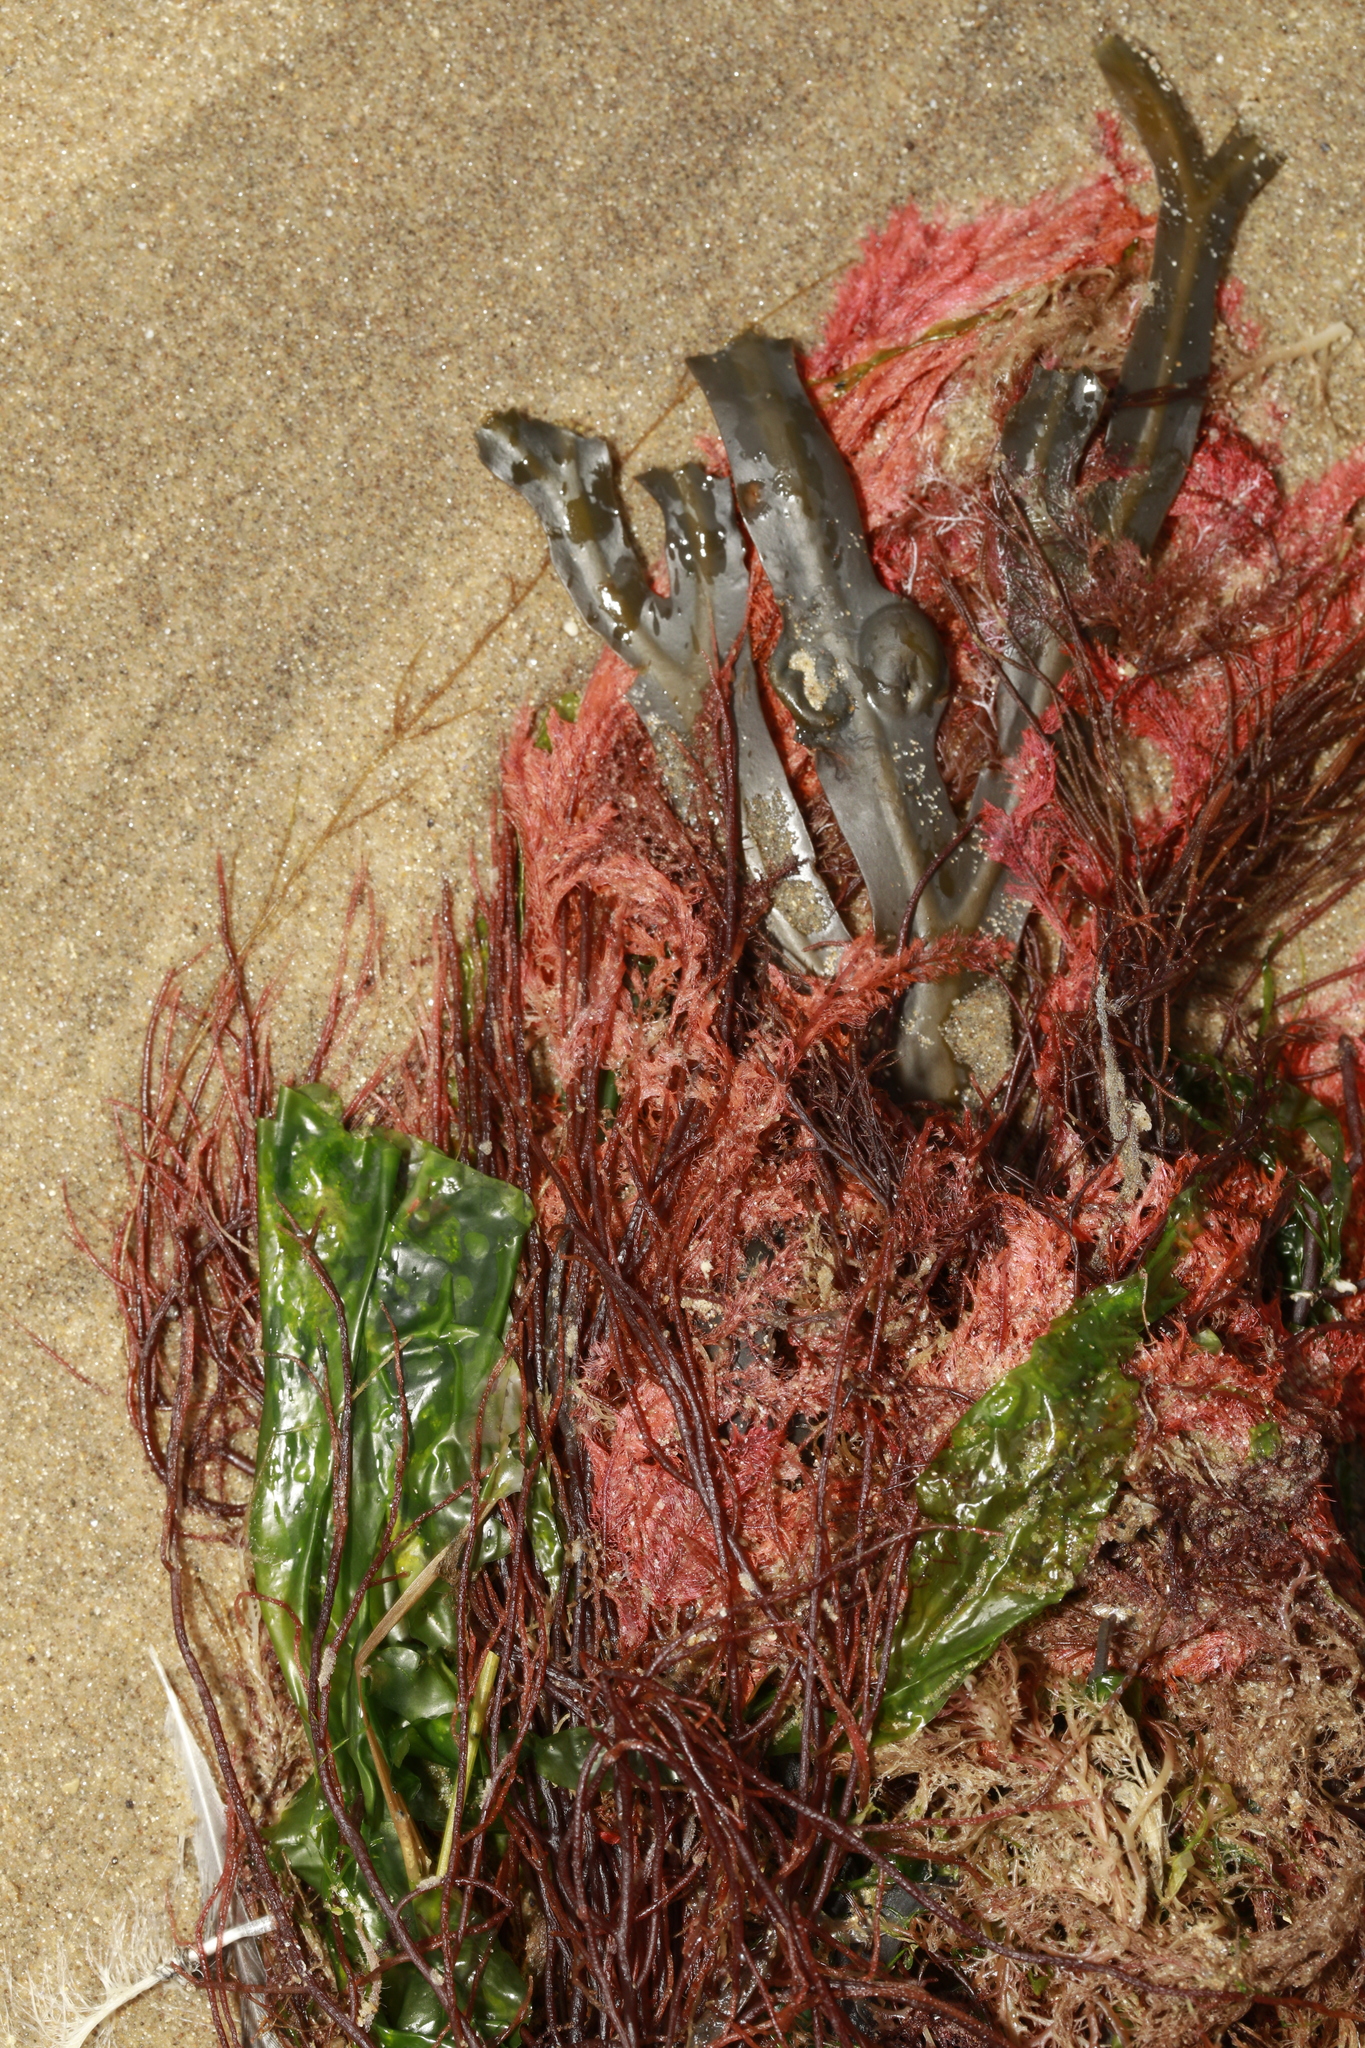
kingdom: Plantae
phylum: Chlorophyta
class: Ulvophyceae
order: Ulvales
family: Ulvaceae
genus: Ulva
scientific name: Ulva lactuca
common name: Sea lettuce
